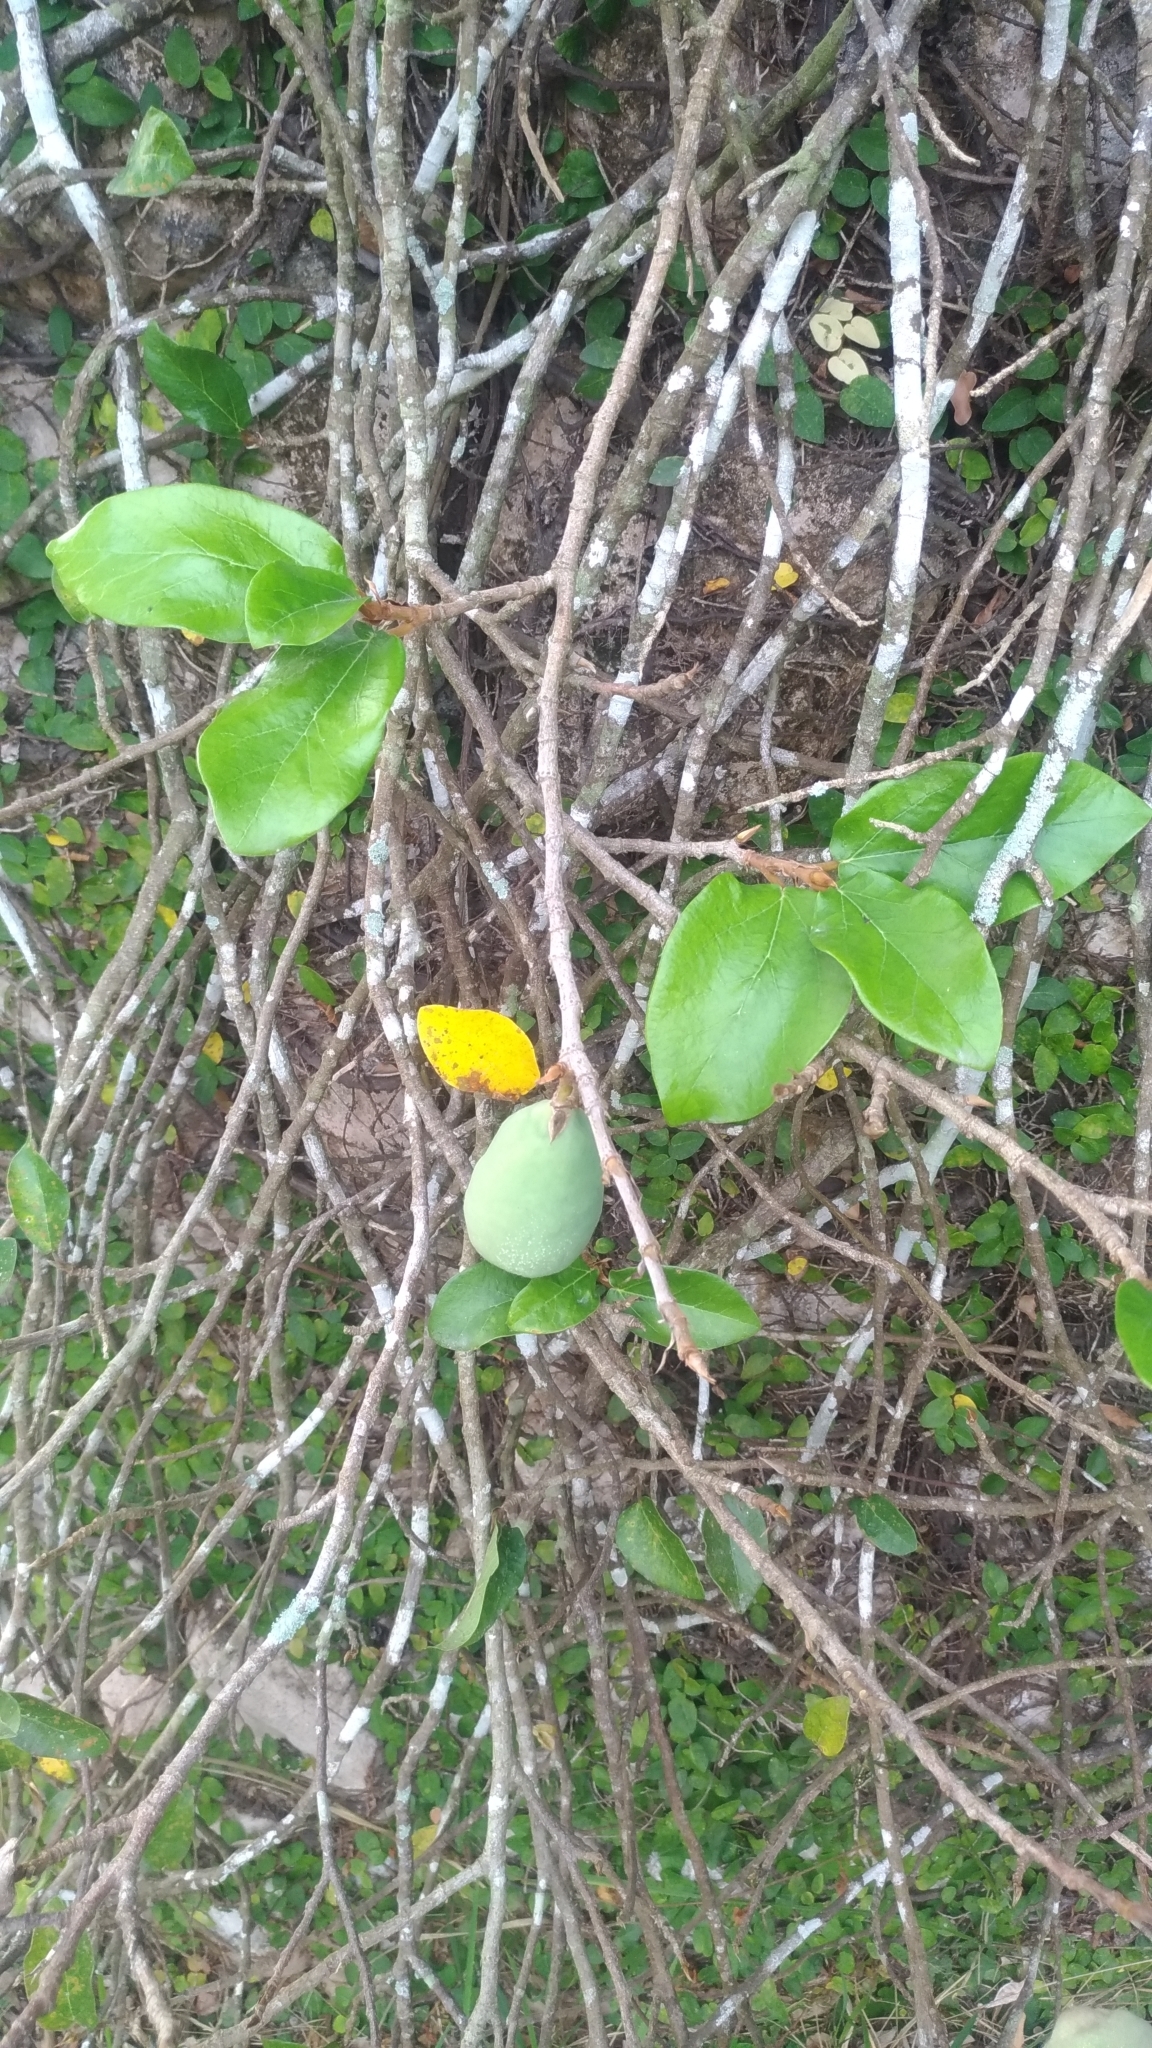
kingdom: Plantae
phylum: Tracheophyta
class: Magnoliopsida
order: Rosales
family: Moraceae
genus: Ficus
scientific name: Ficus pumila
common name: Climbingfig
